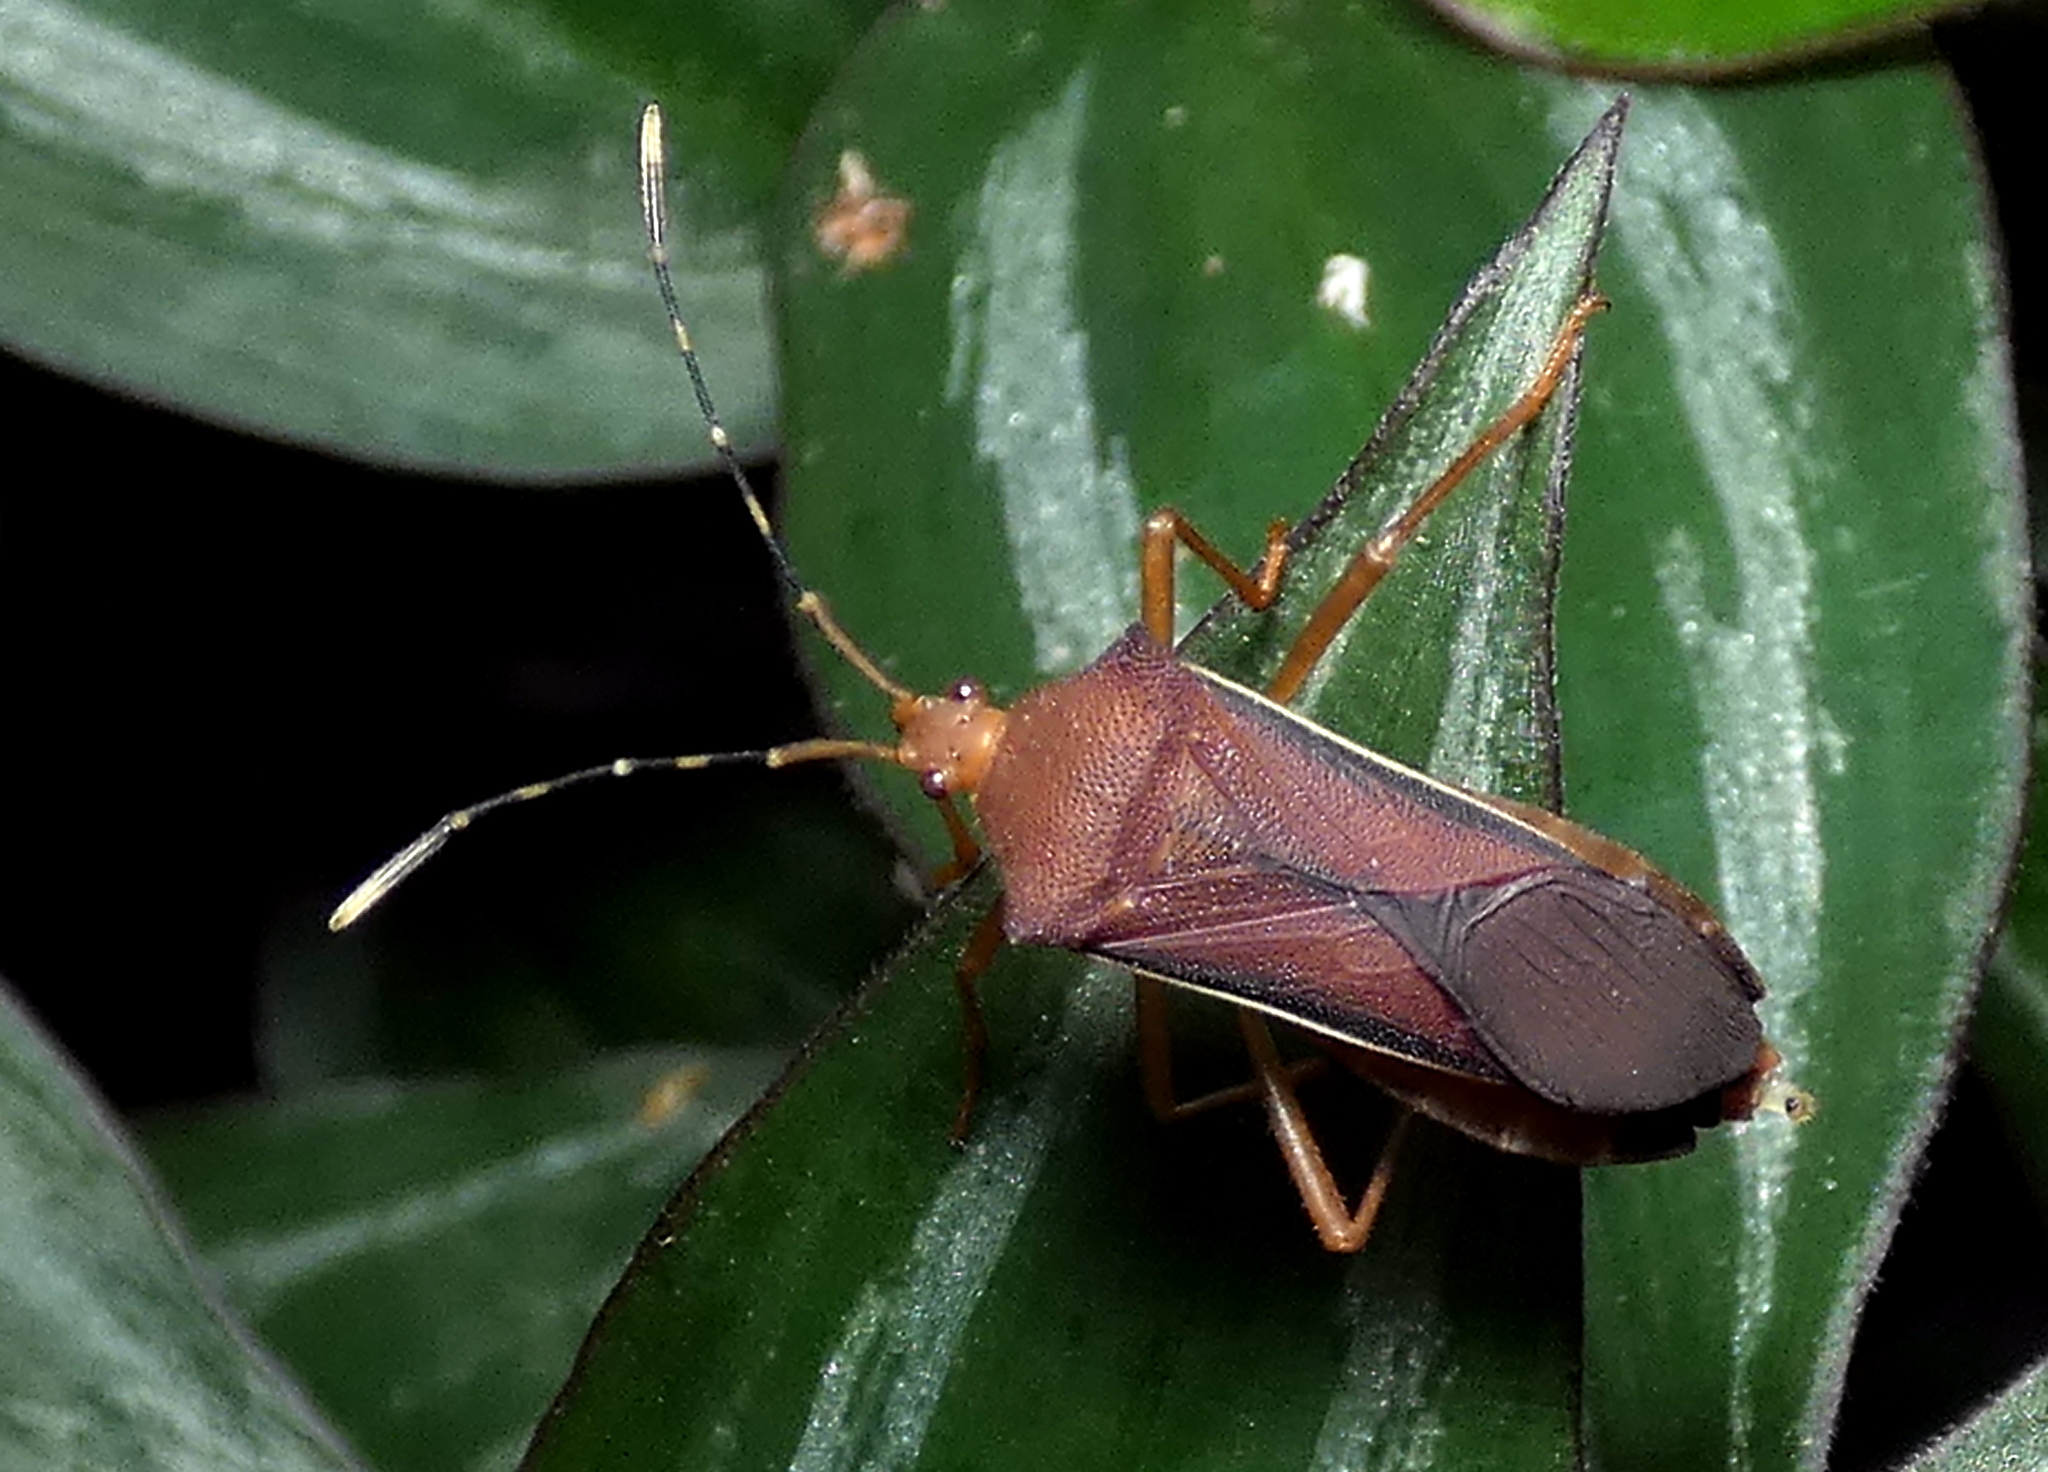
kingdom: Animalia
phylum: Arthropoda
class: Insecta
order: Hemiptera
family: Coreidae
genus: Anasa
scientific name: Anasa varicornis
